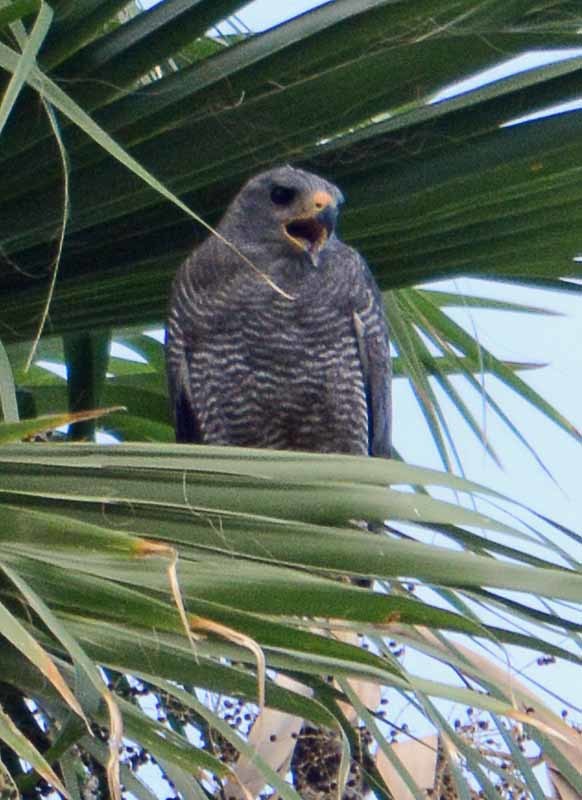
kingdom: Animalia
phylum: Chordata
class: Aves
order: Accipitriformes
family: Accipitridae
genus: Buteo
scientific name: Buteo nitidus
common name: Grey-lined hawk
